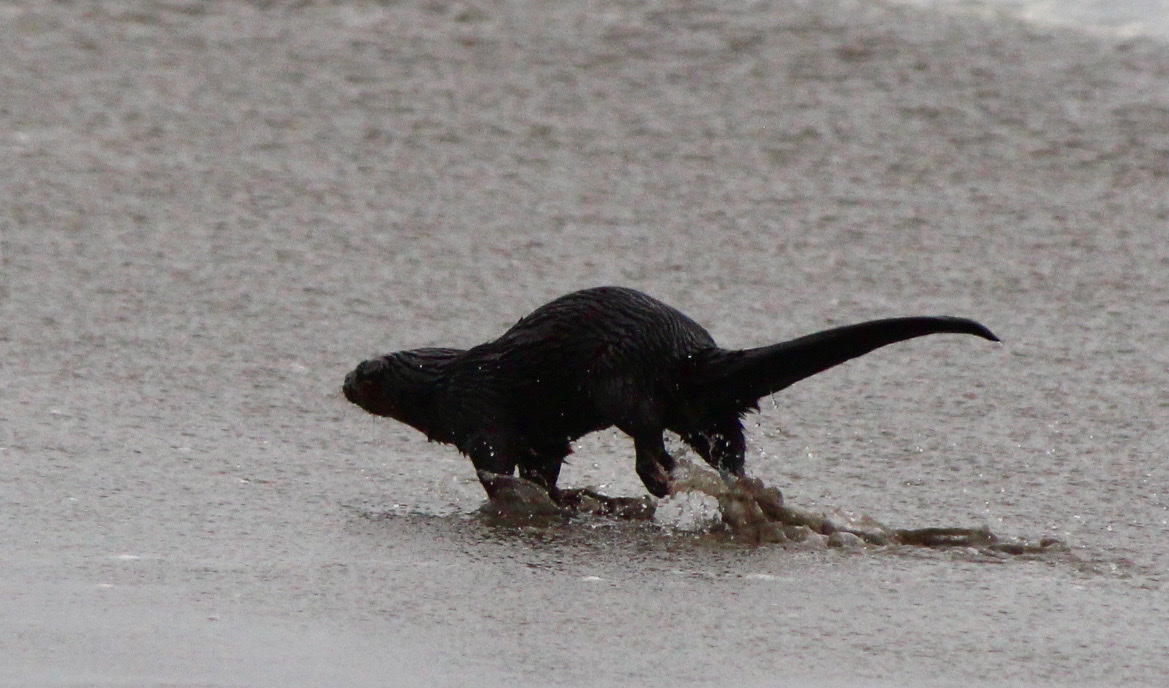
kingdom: Animalia
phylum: Chordata
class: Mammalia
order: Carnivora
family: Mustelidae
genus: Lontra
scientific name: Lontra felina
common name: Marine otter
